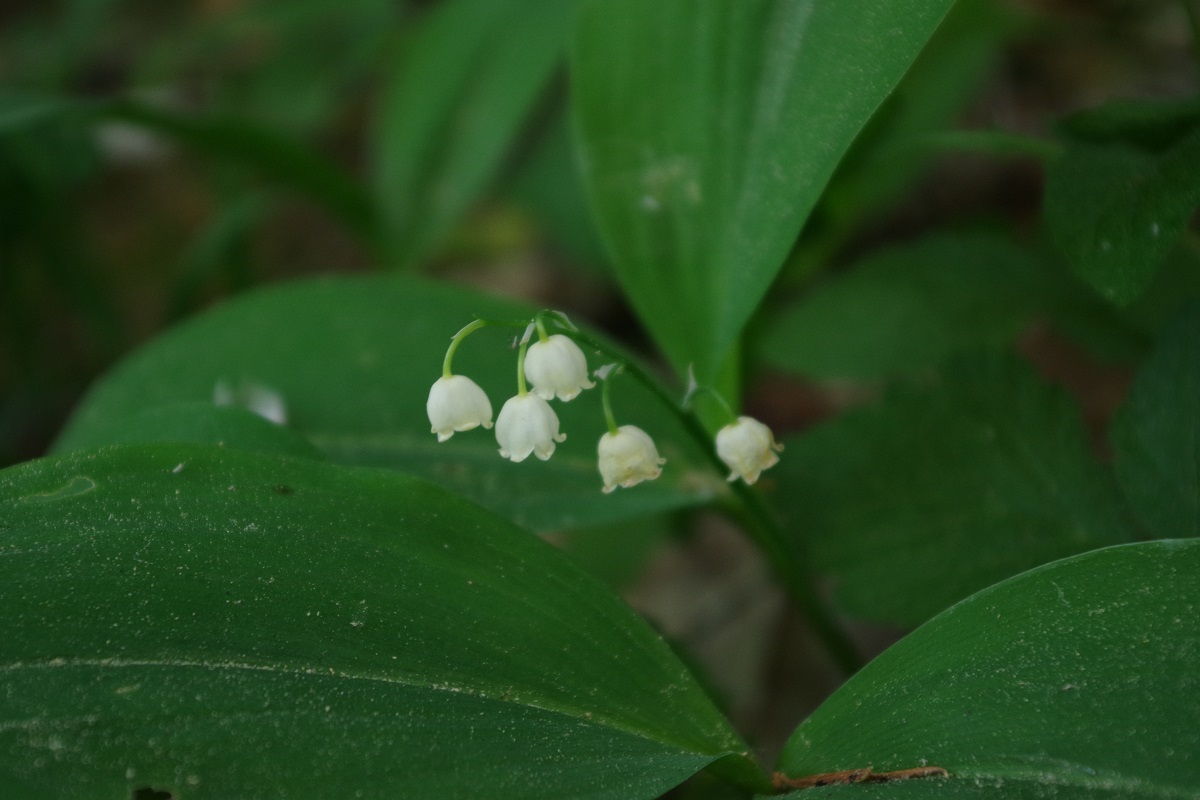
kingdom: Plantae
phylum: Tracheophyta
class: Liliopsida
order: Asparagales
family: Asparagaceae
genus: Convallaria
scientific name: Convallaria majalis
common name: Lily-of-the-valley
